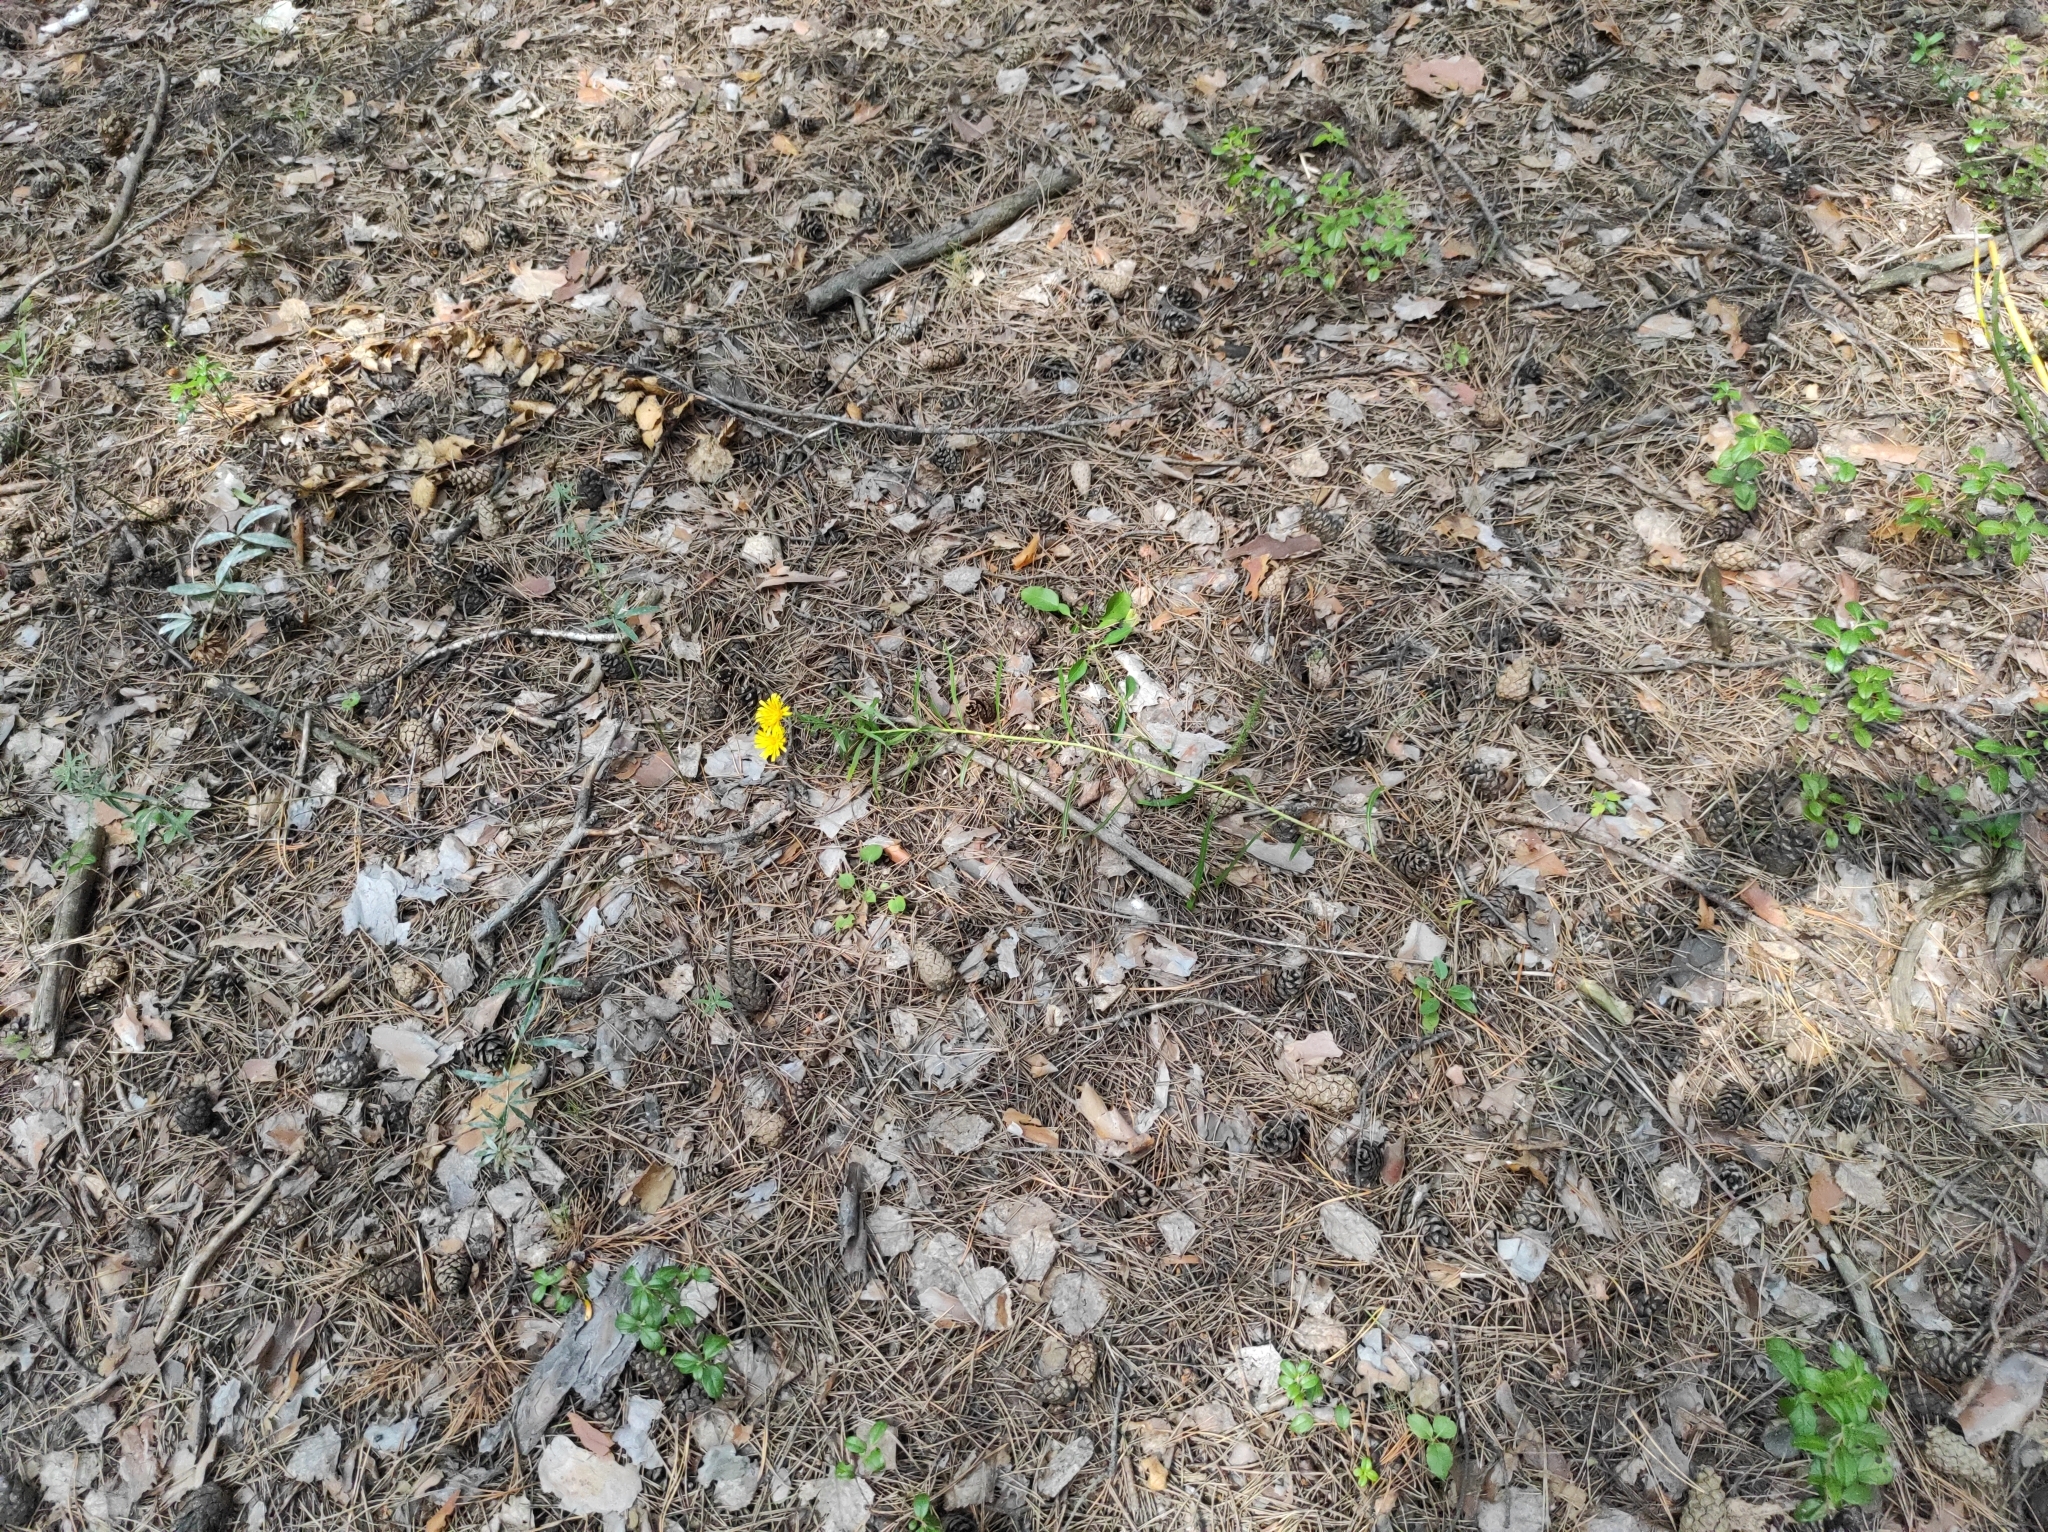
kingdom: Plantae
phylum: Tracheophyta
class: Magnoliopsida
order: Asterales
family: Asteraceae
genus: Hieracium
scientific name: Hieracium umbellatum
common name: Northern hawkweed
